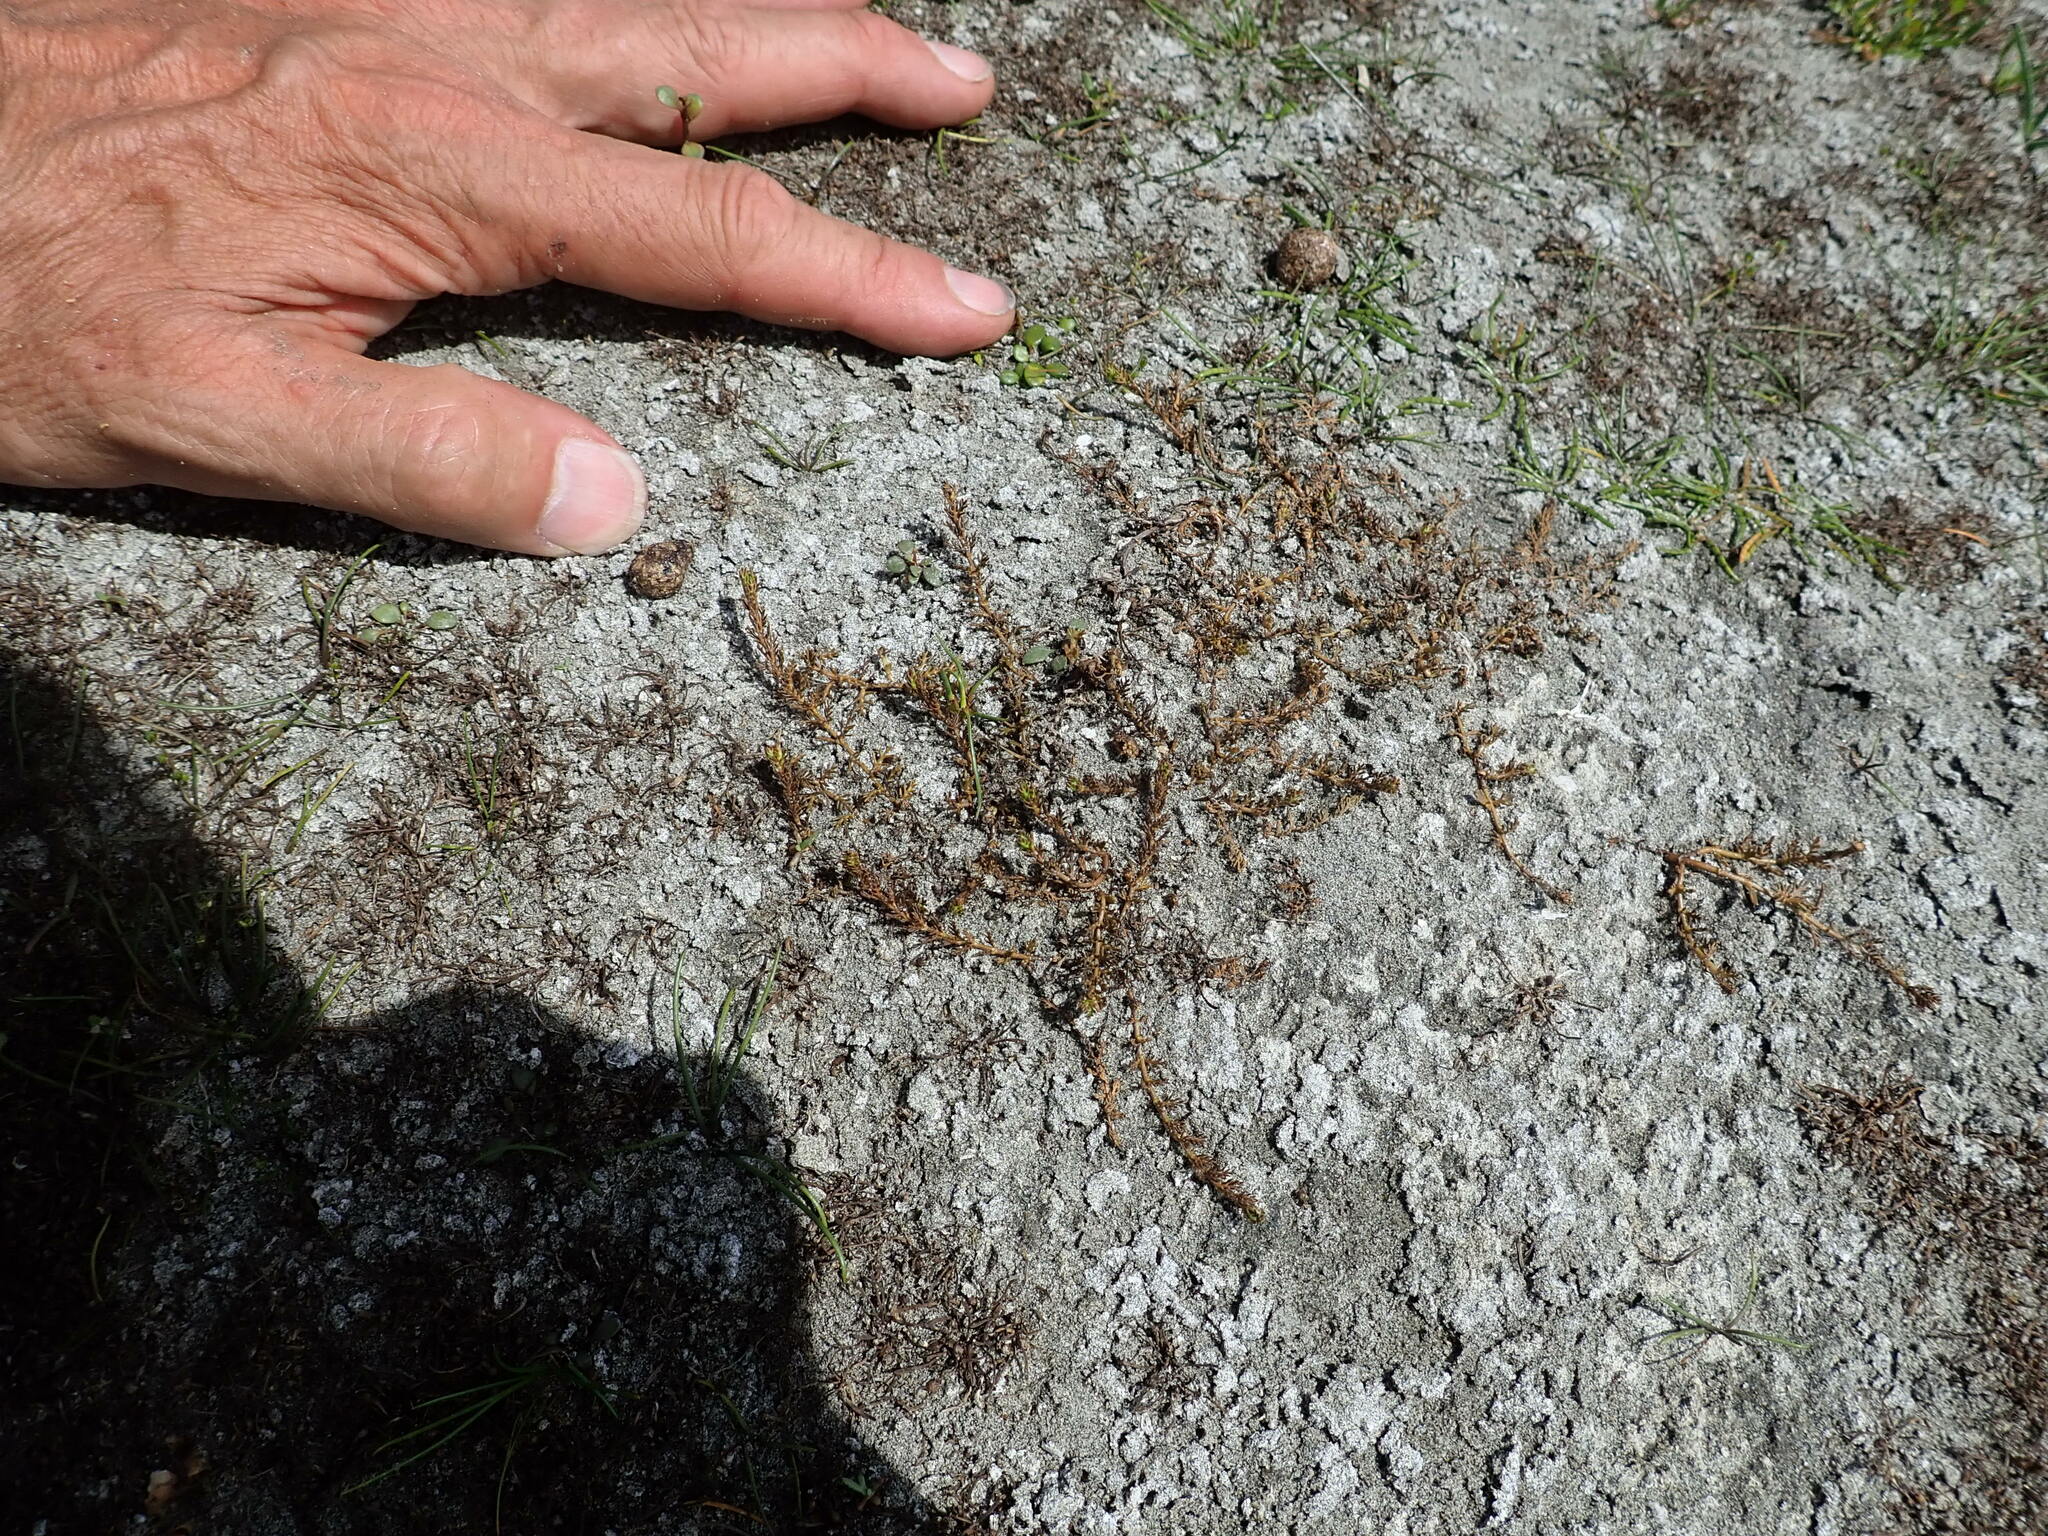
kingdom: Plantae
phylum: Tracheophyta
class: Magnoliopsida
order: Saxifragales
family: Haloragaceae
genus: Myriophyllum
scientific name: Myriophyllum votschii
